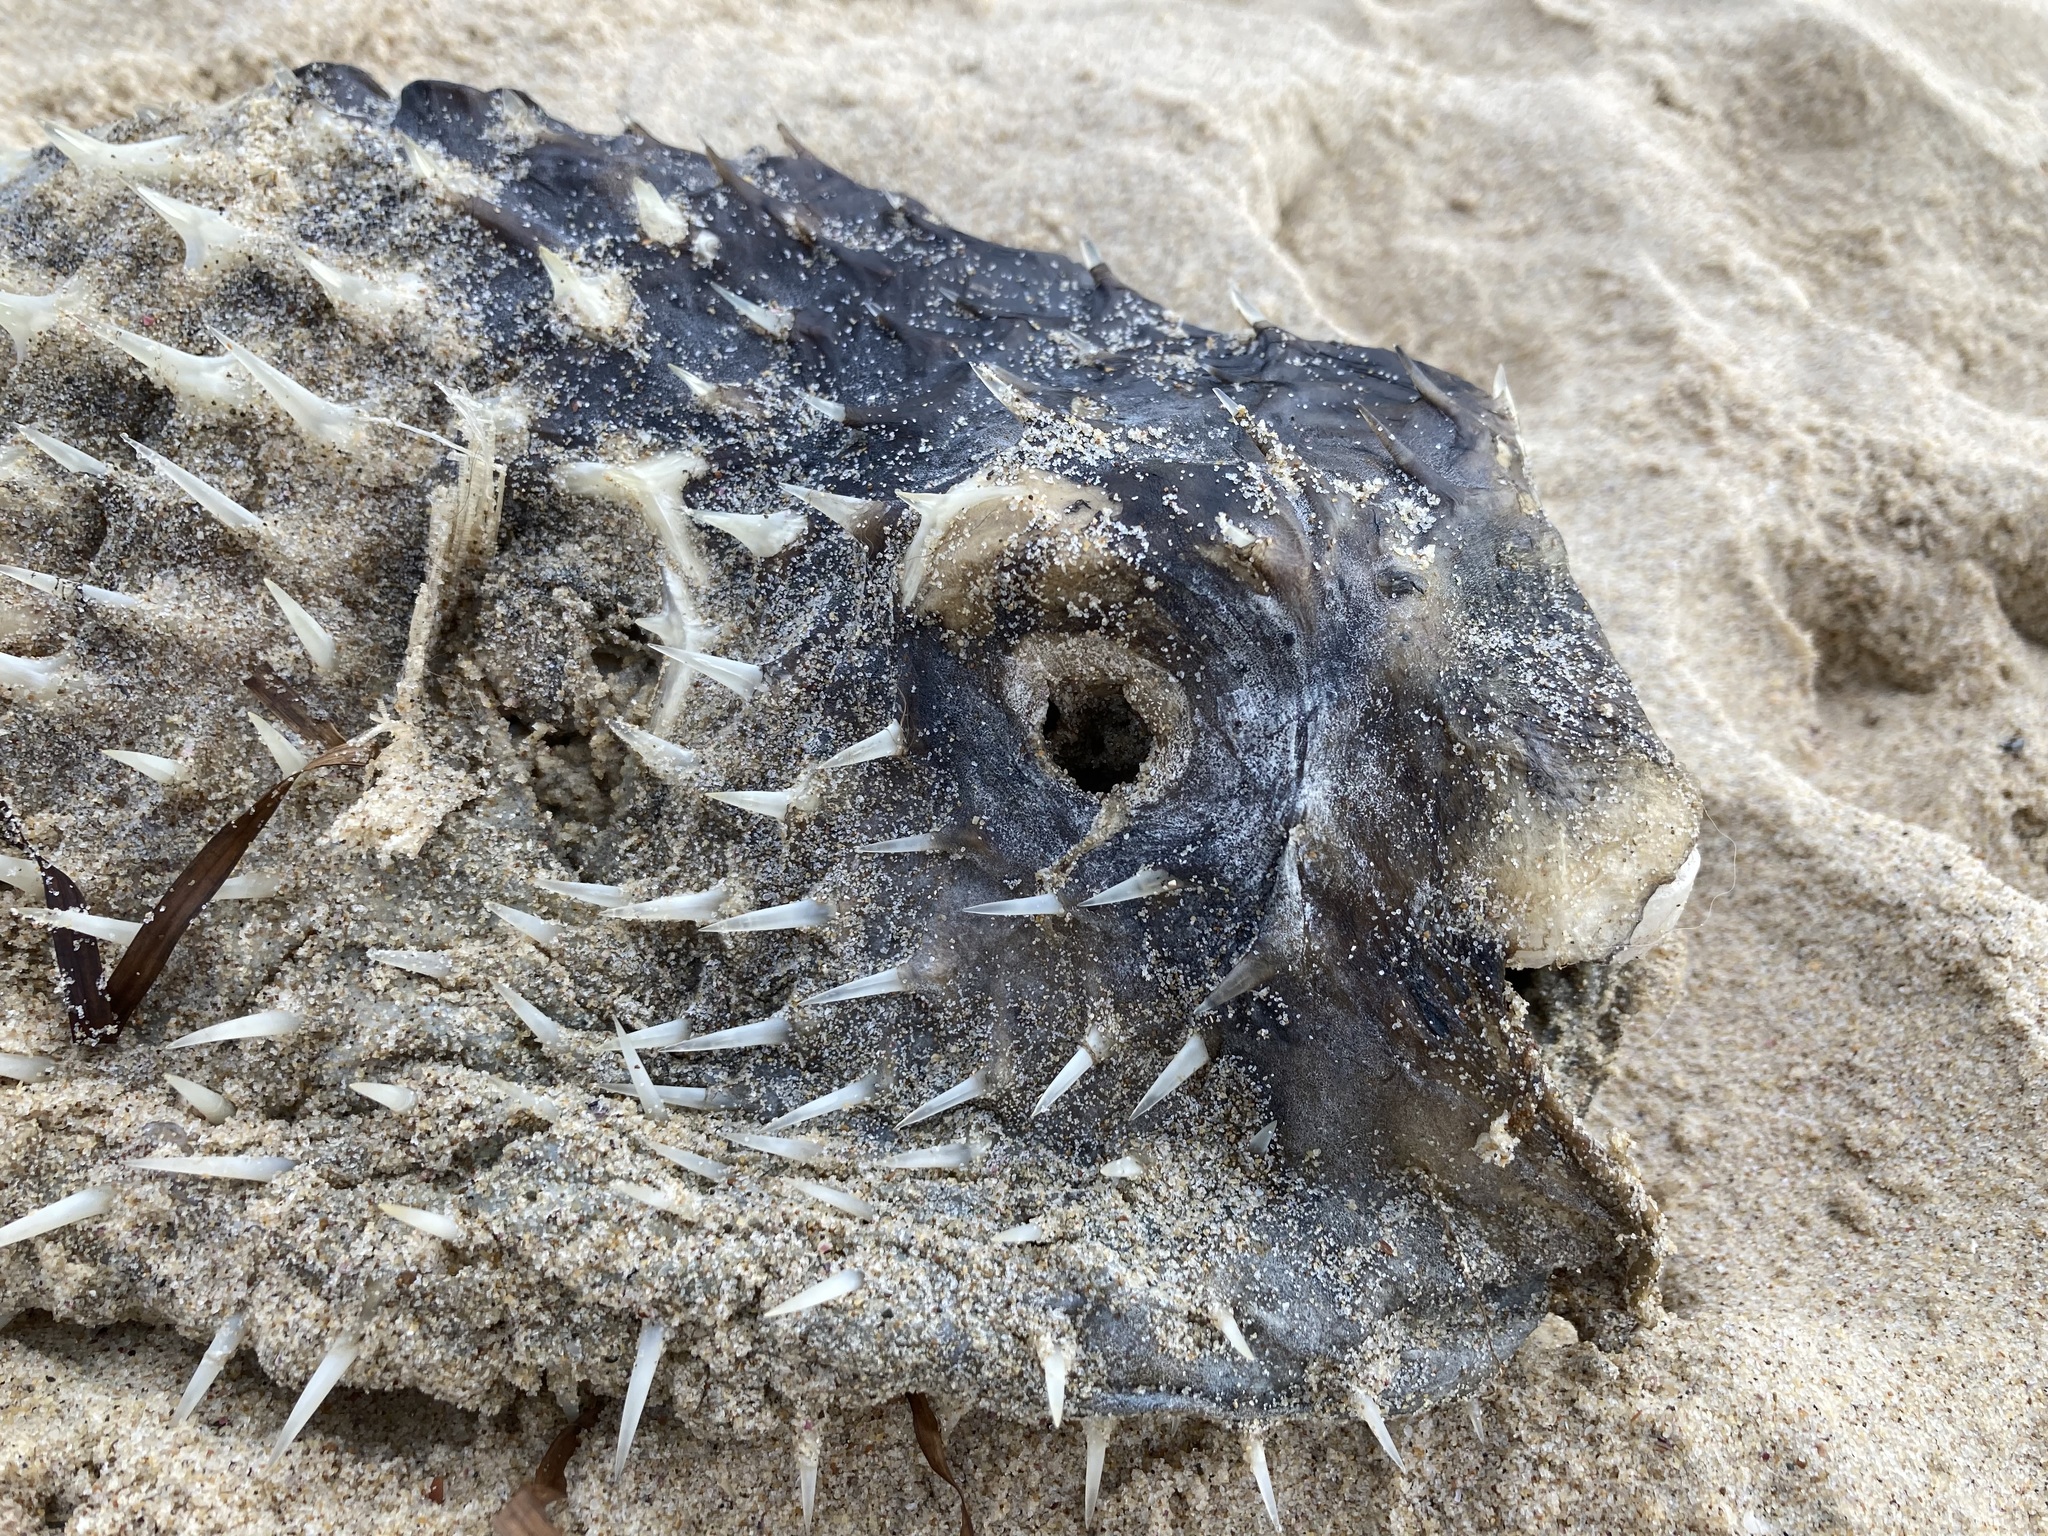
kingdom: Animalia
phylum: Chordata
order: Tetraodontiformes
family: Diodontidae
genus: Dicotylichthys
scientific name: Dicotylichthys punctulatus
